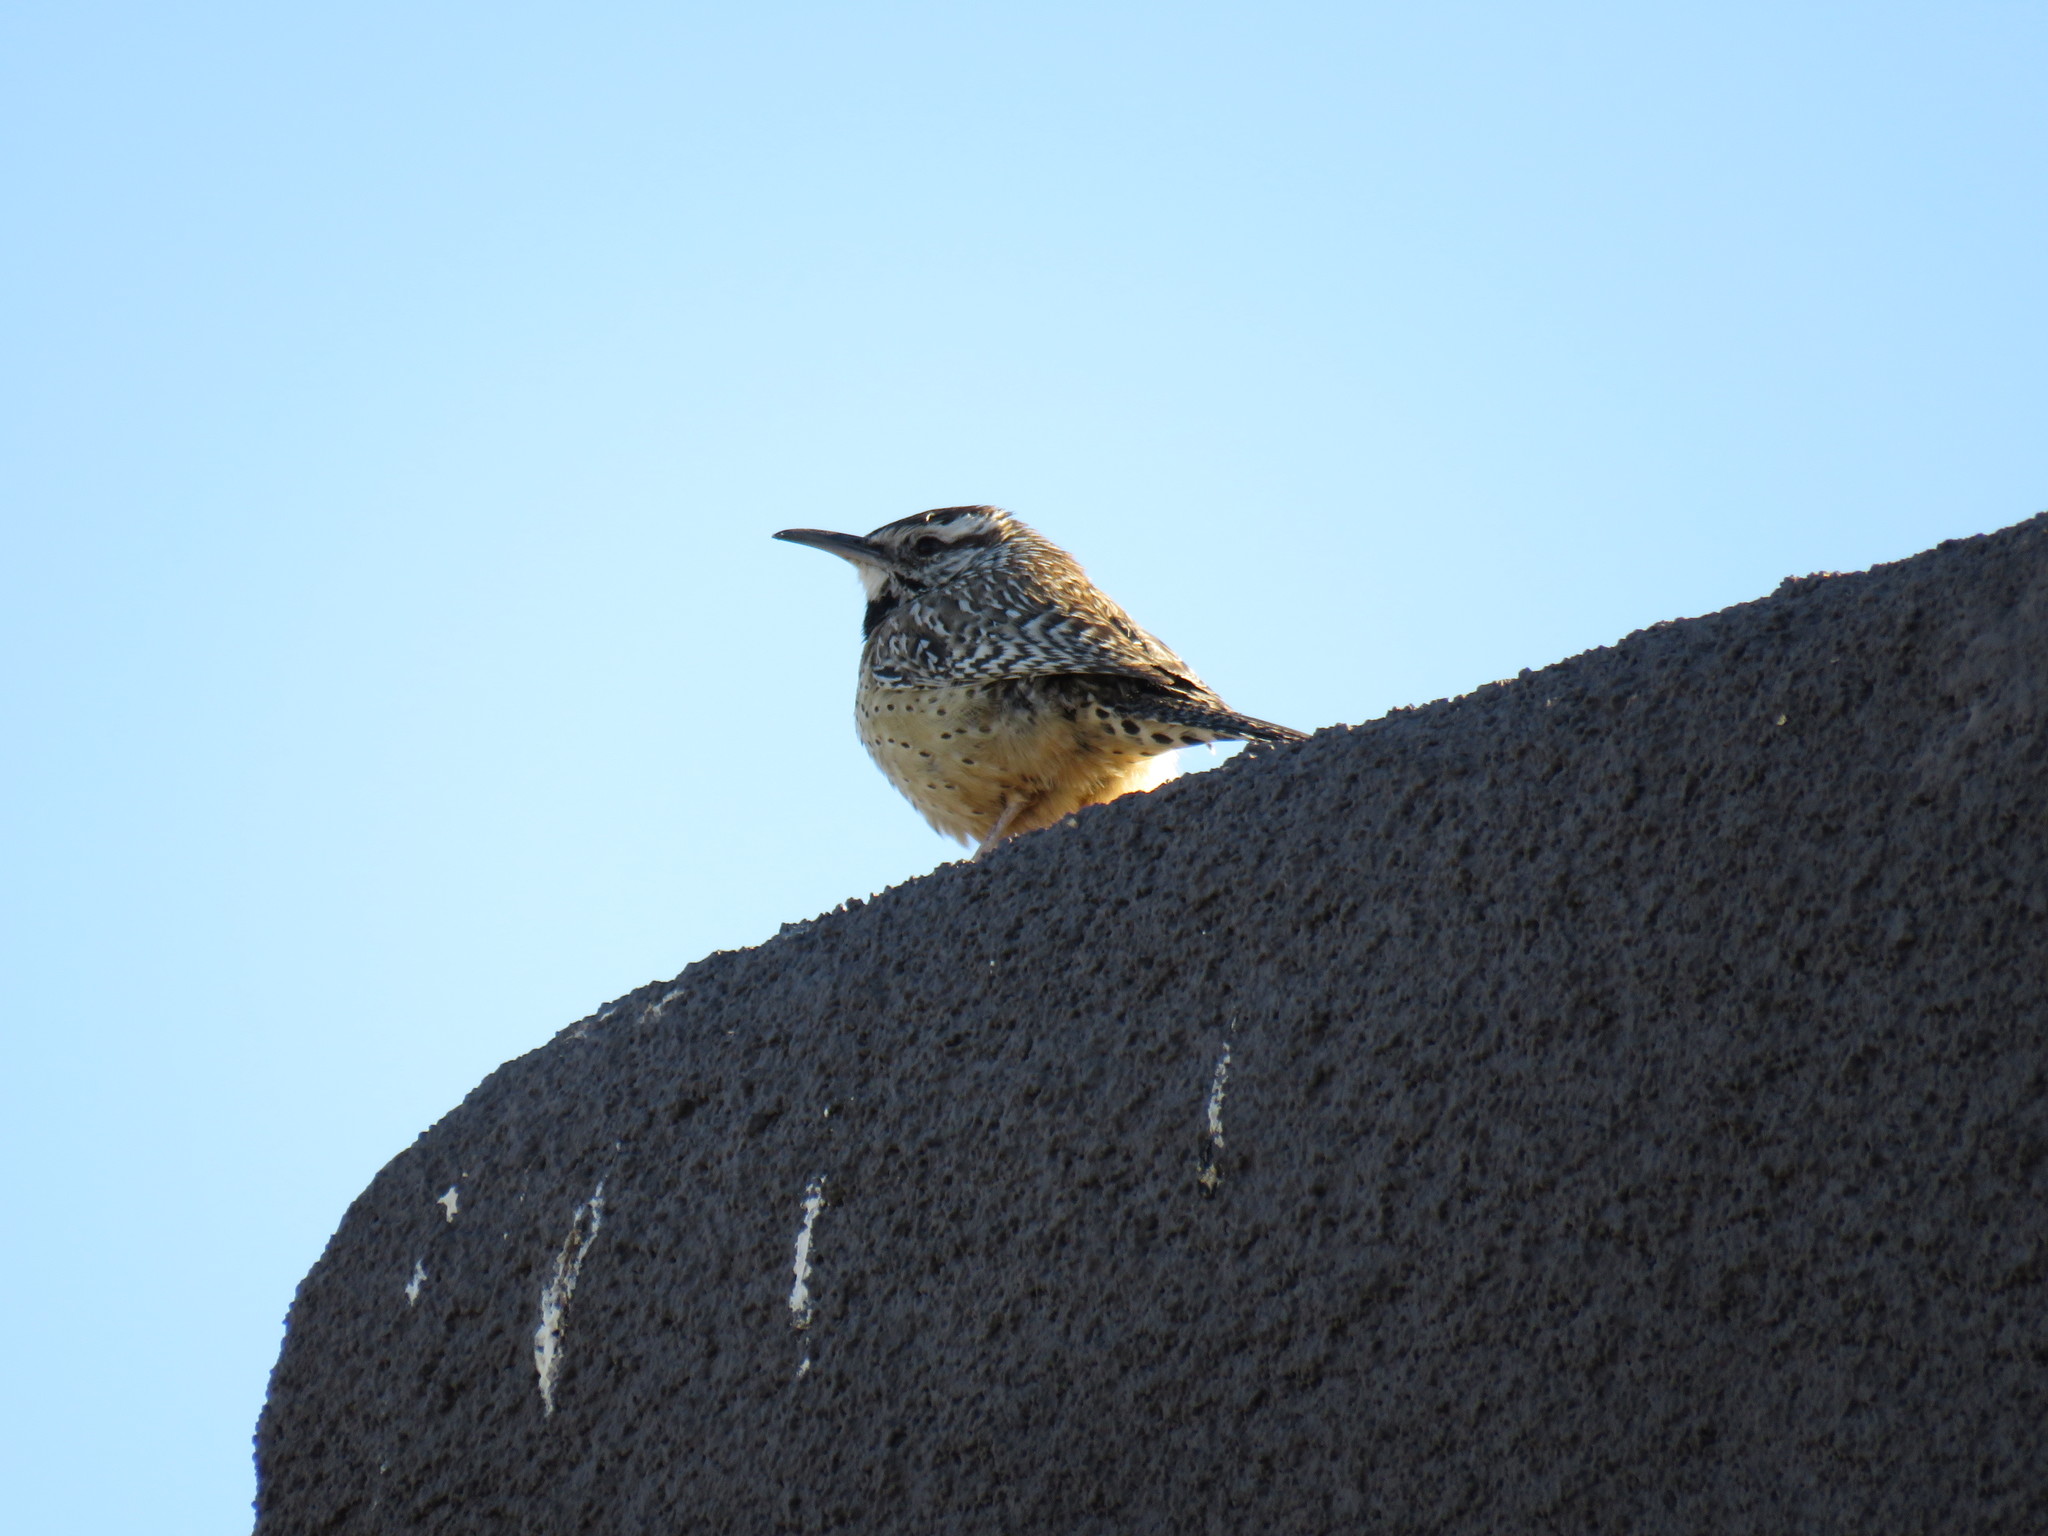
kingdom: Animalia
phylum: Chordata
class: Aves
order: Passeriformes
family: Troglodytidae
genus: Campylorhynchus
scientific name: Campylorhynchus brunneicapillus
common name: Cactus wren
